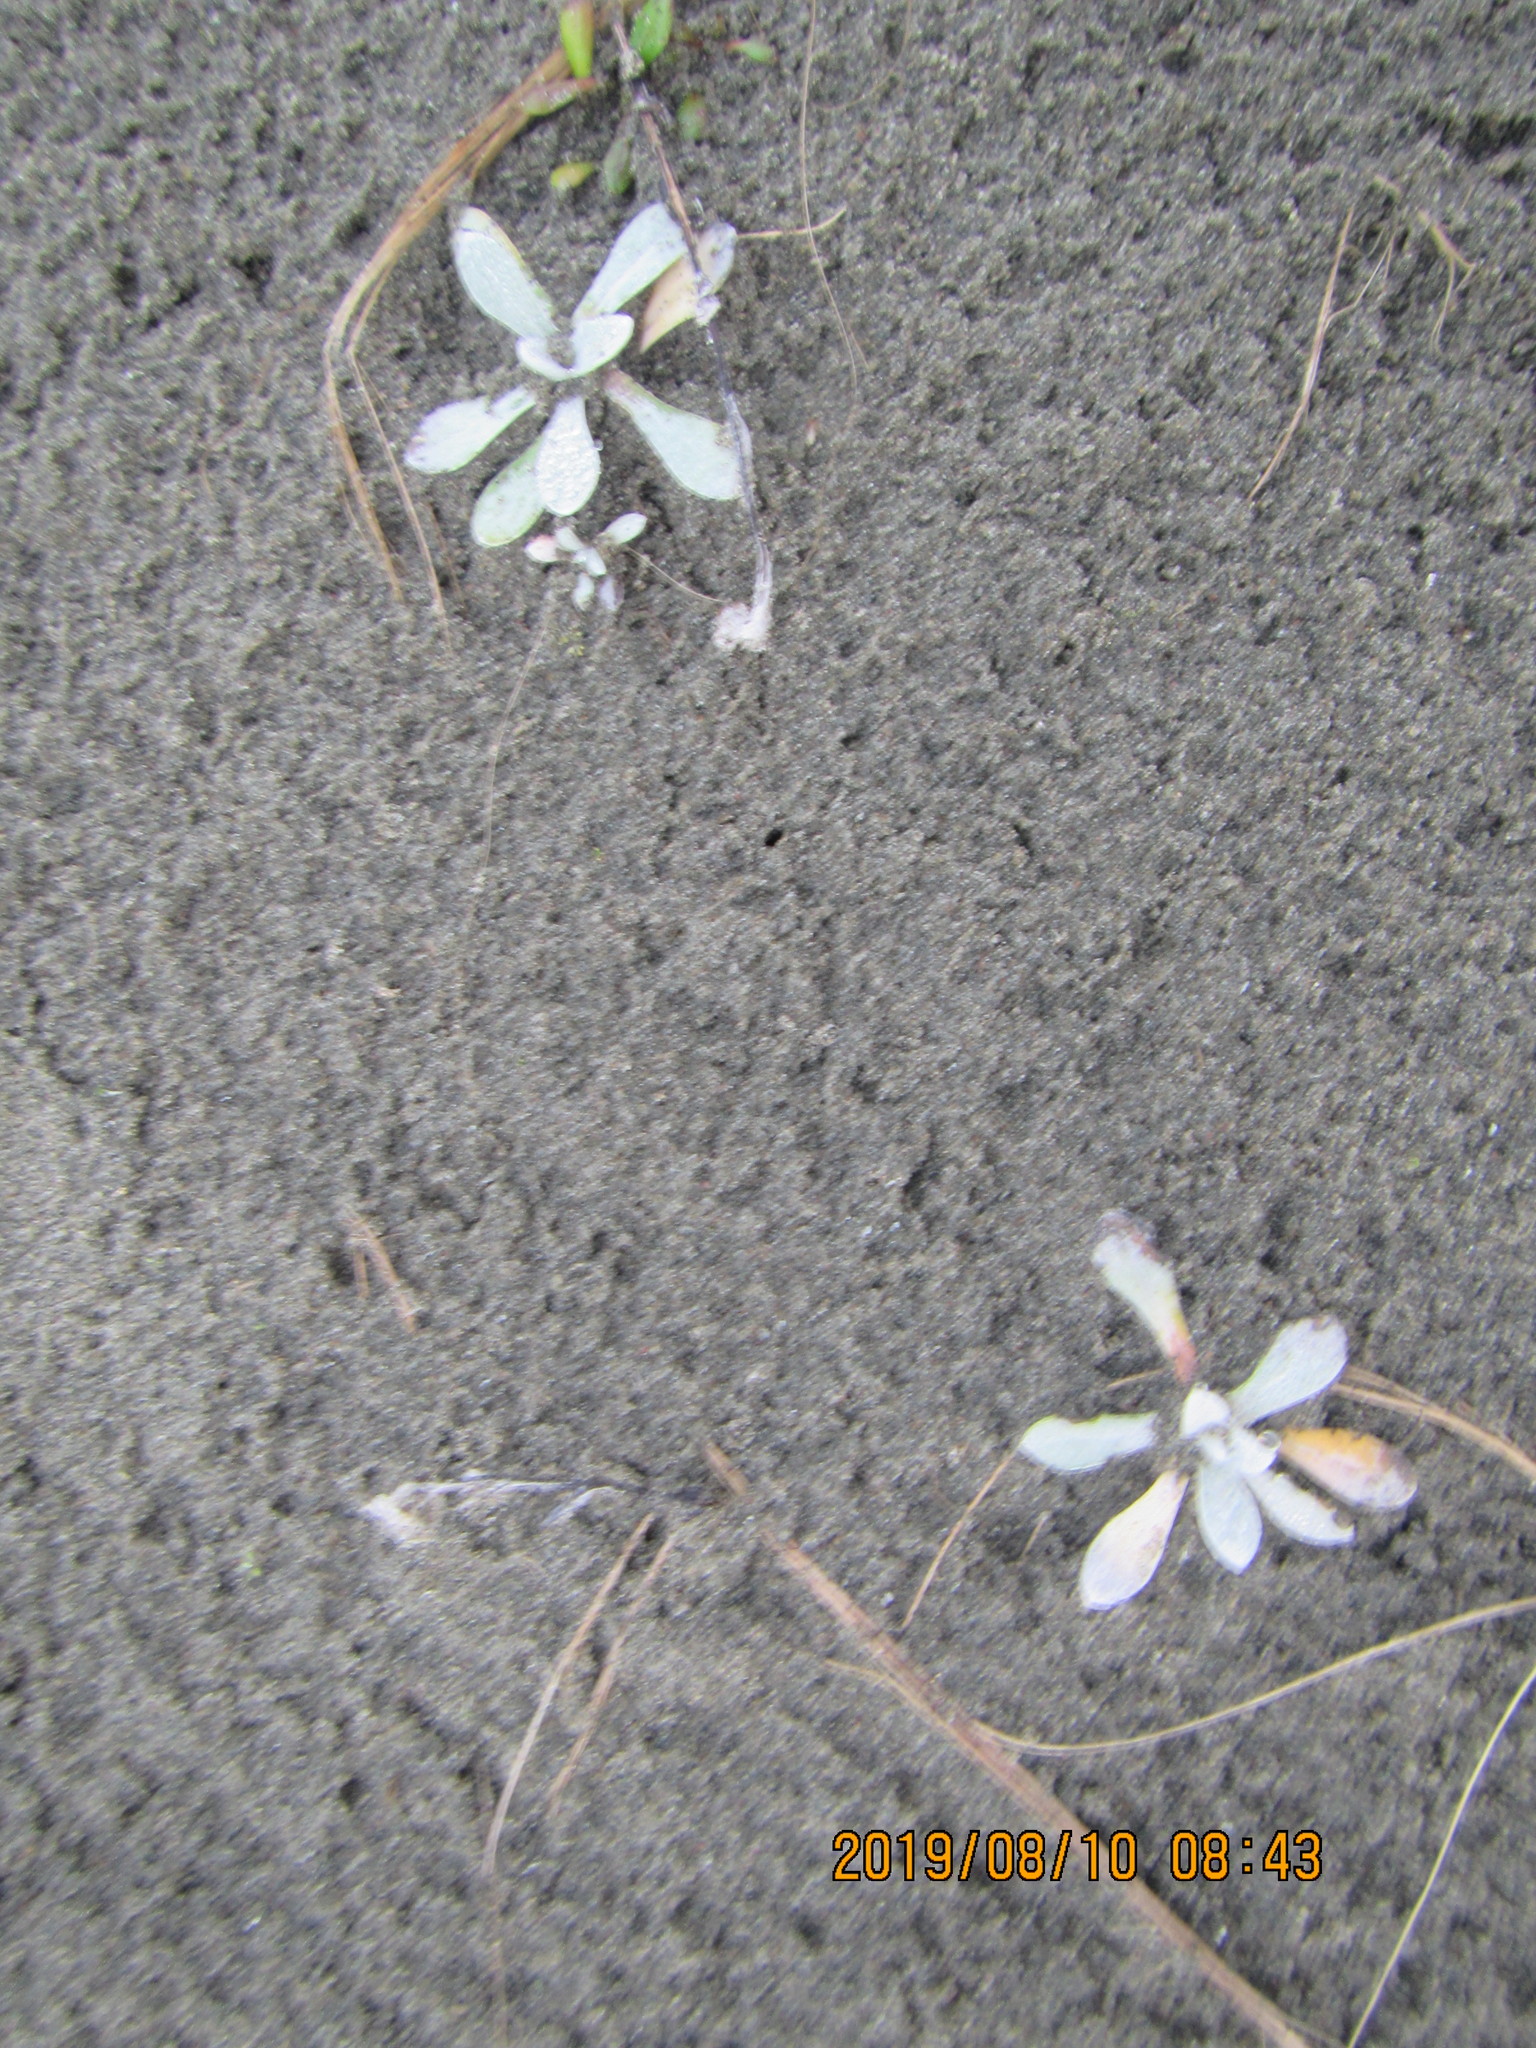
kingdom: Plantae
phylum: Tracheophyta
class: Magnoliopsida
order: Asterales
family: Asteraceae
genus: Helichrysum
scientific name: Helichrysum luteoalbum
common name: Daisy
